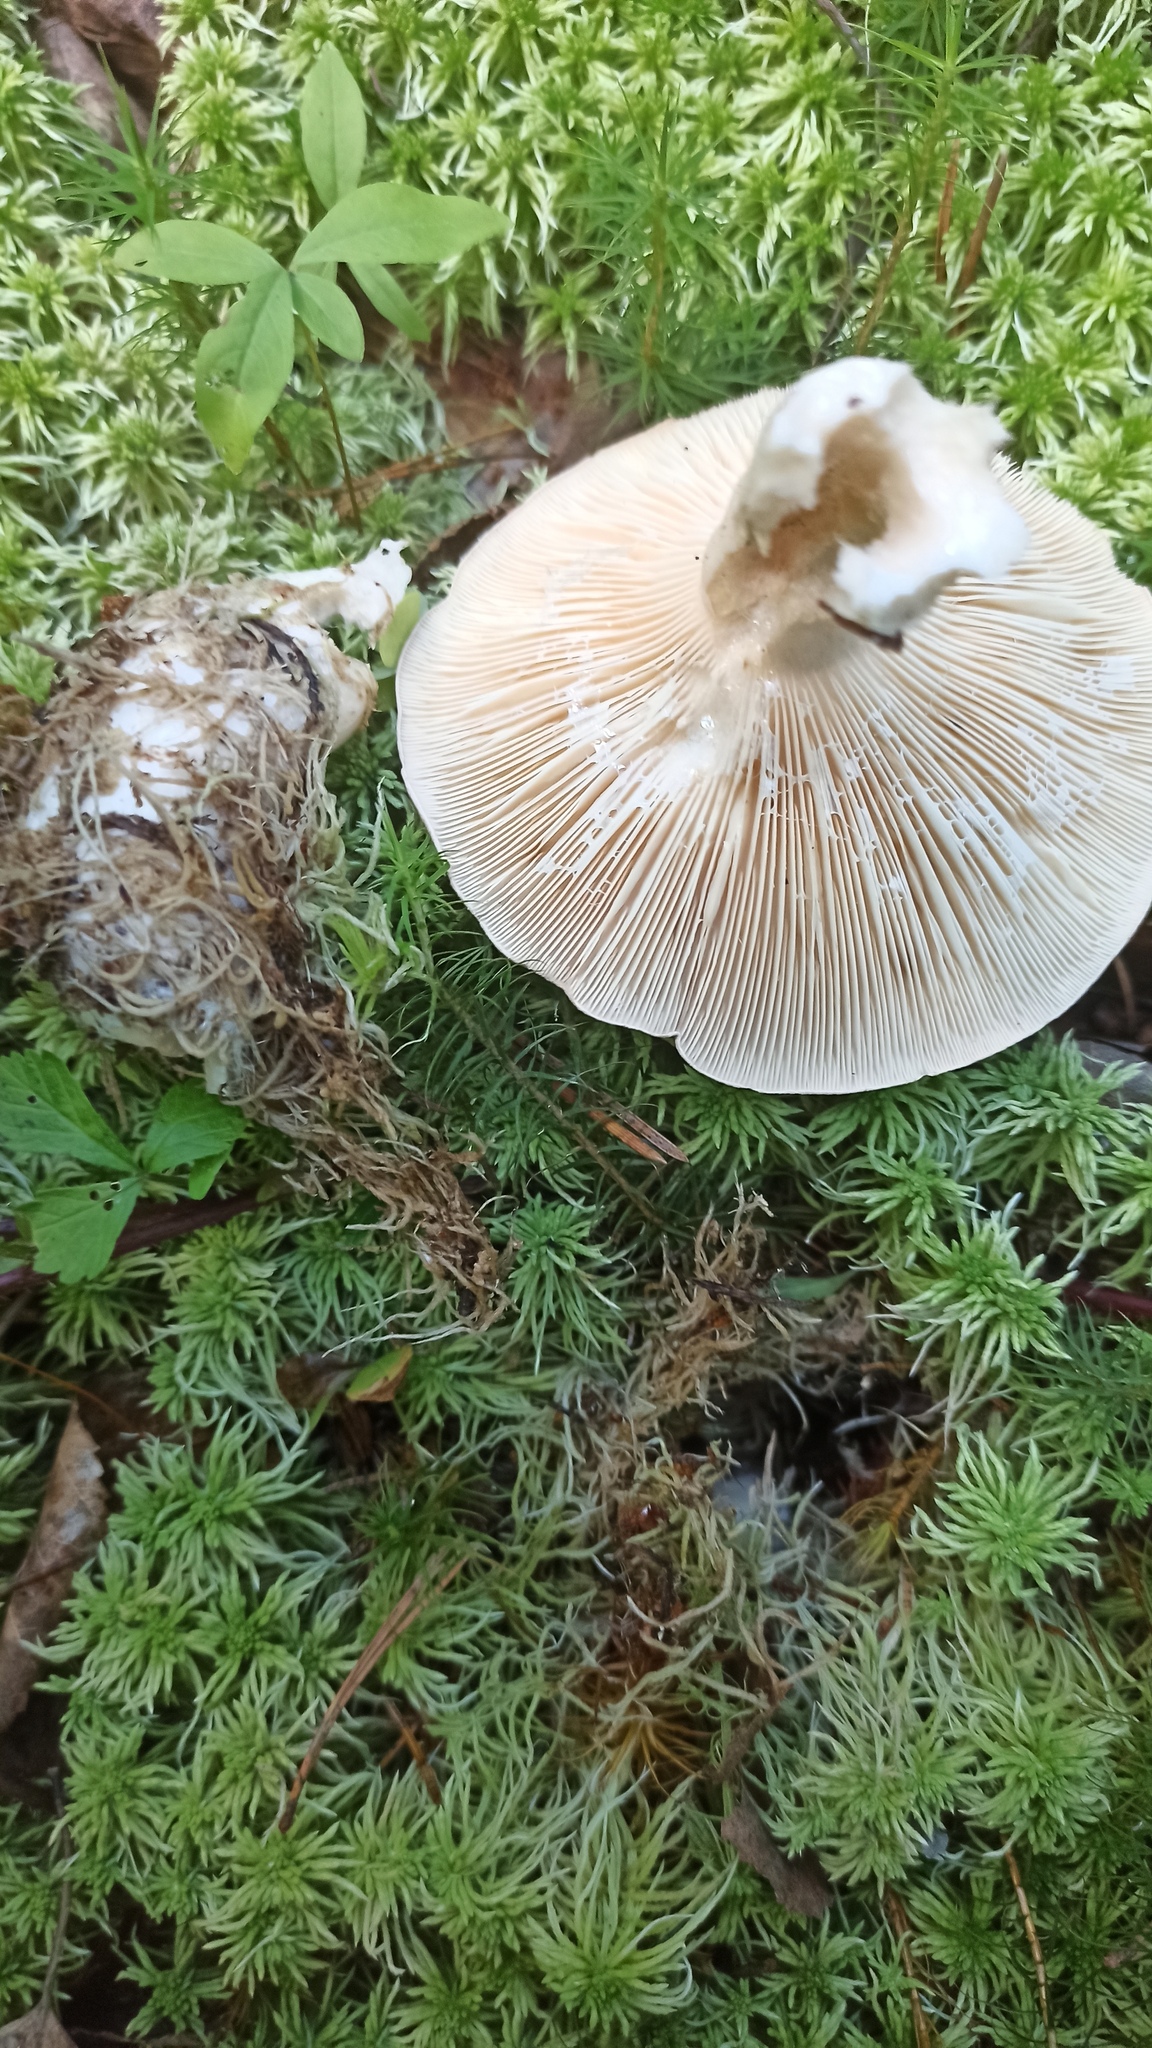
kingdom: Fungi
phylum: Basidiomycota
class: Agaricomycetes
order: Russulales
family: Russulaceae
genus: Lactarius
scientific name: Lactarius trivialis
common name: Tacked milkcap
